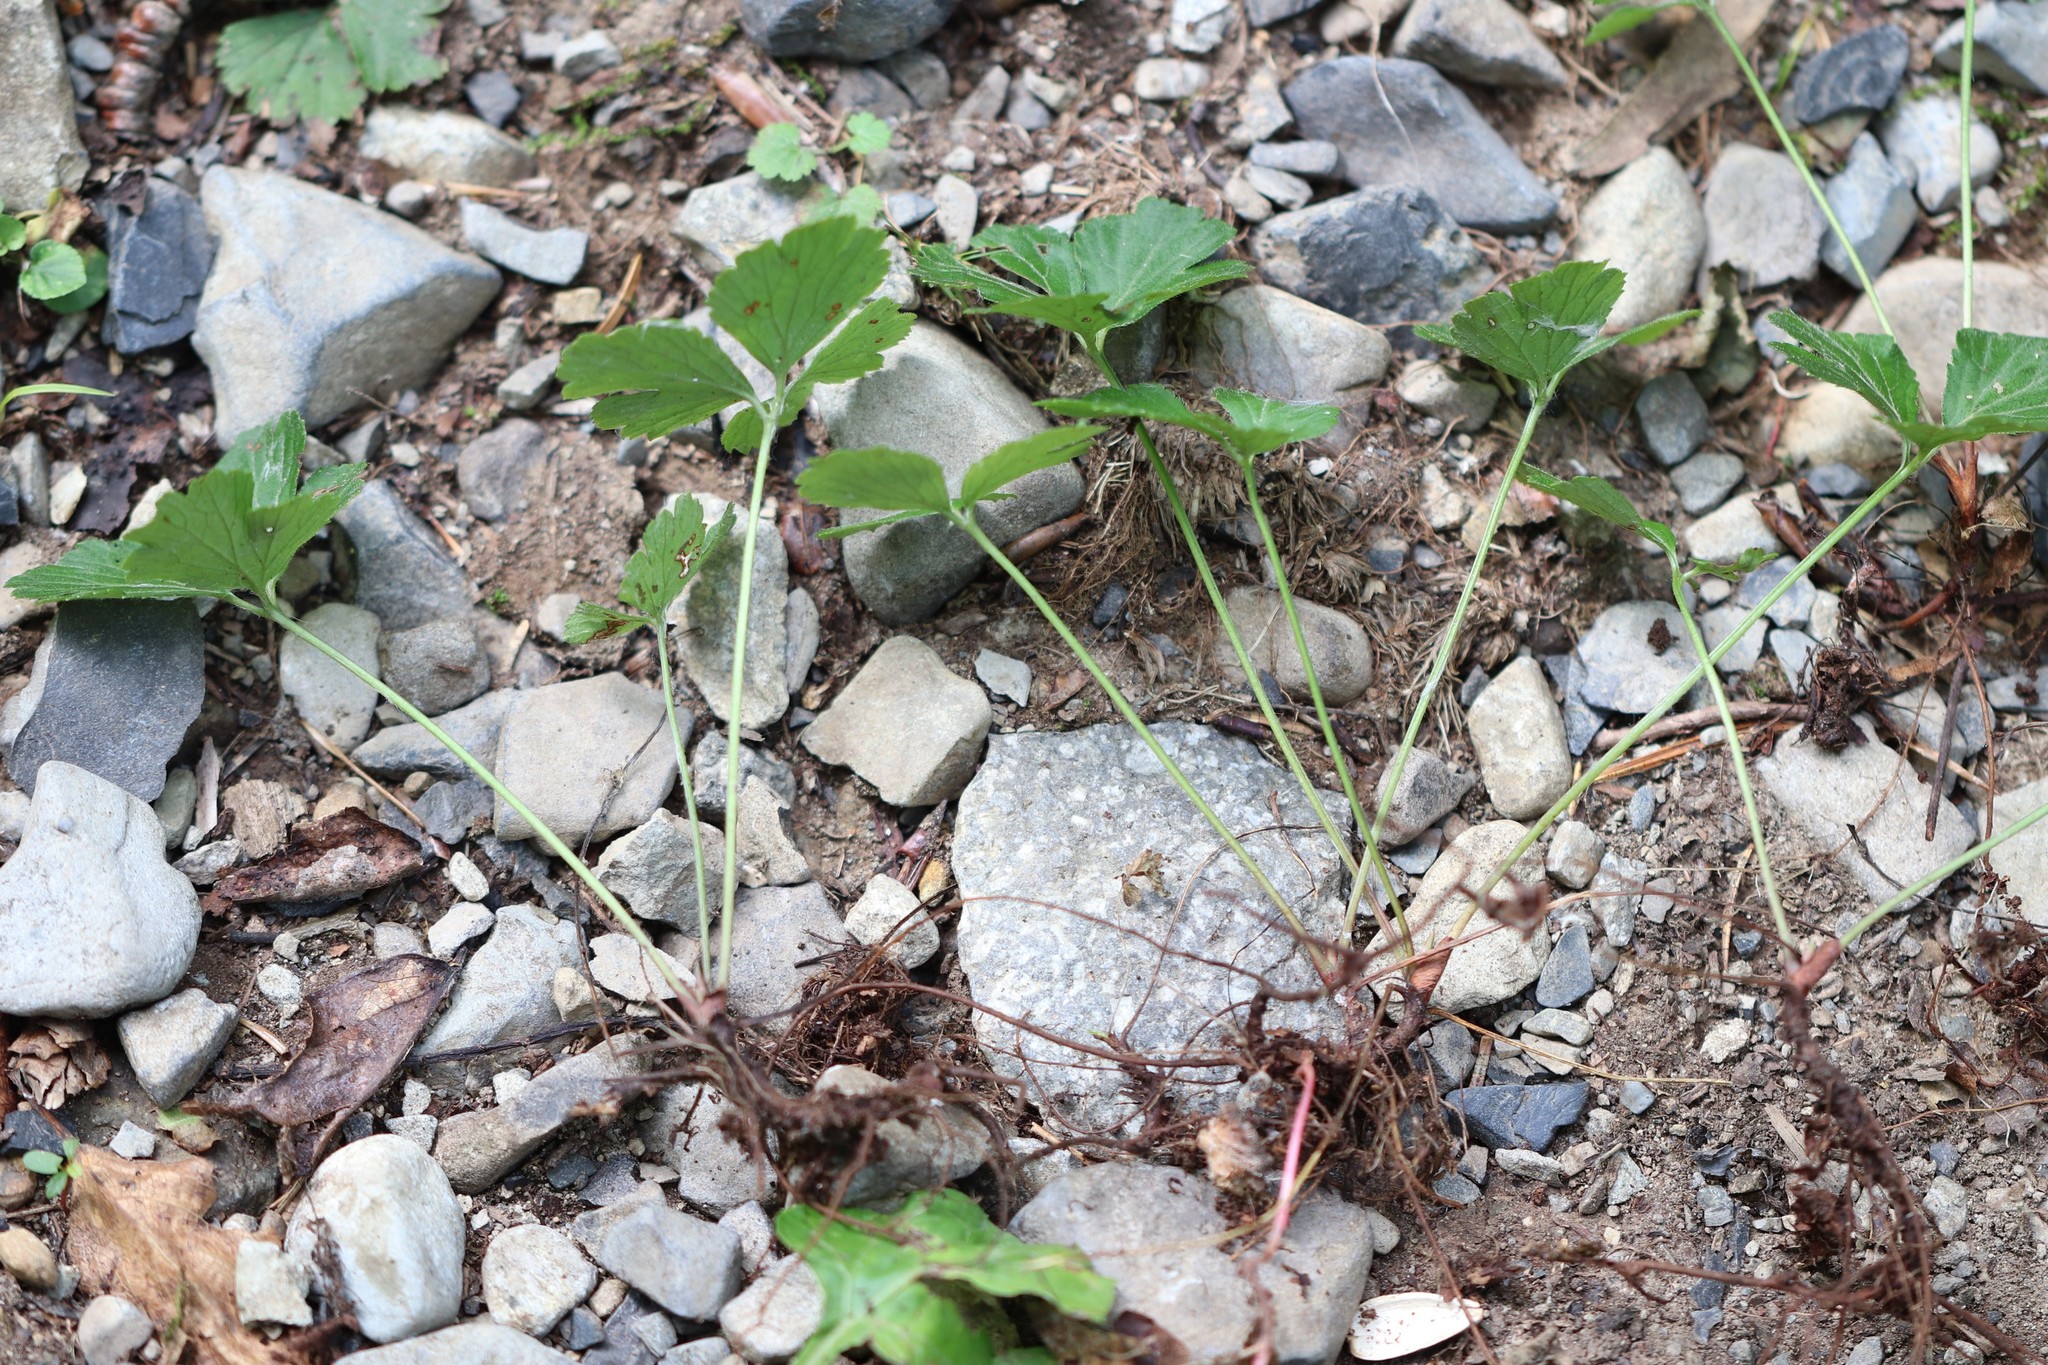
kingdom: Plantae
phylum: Tracheophyta
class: Magnoliopsida
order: Rosales
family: Rosaceae
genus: Geum
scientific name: Geum ternatum
